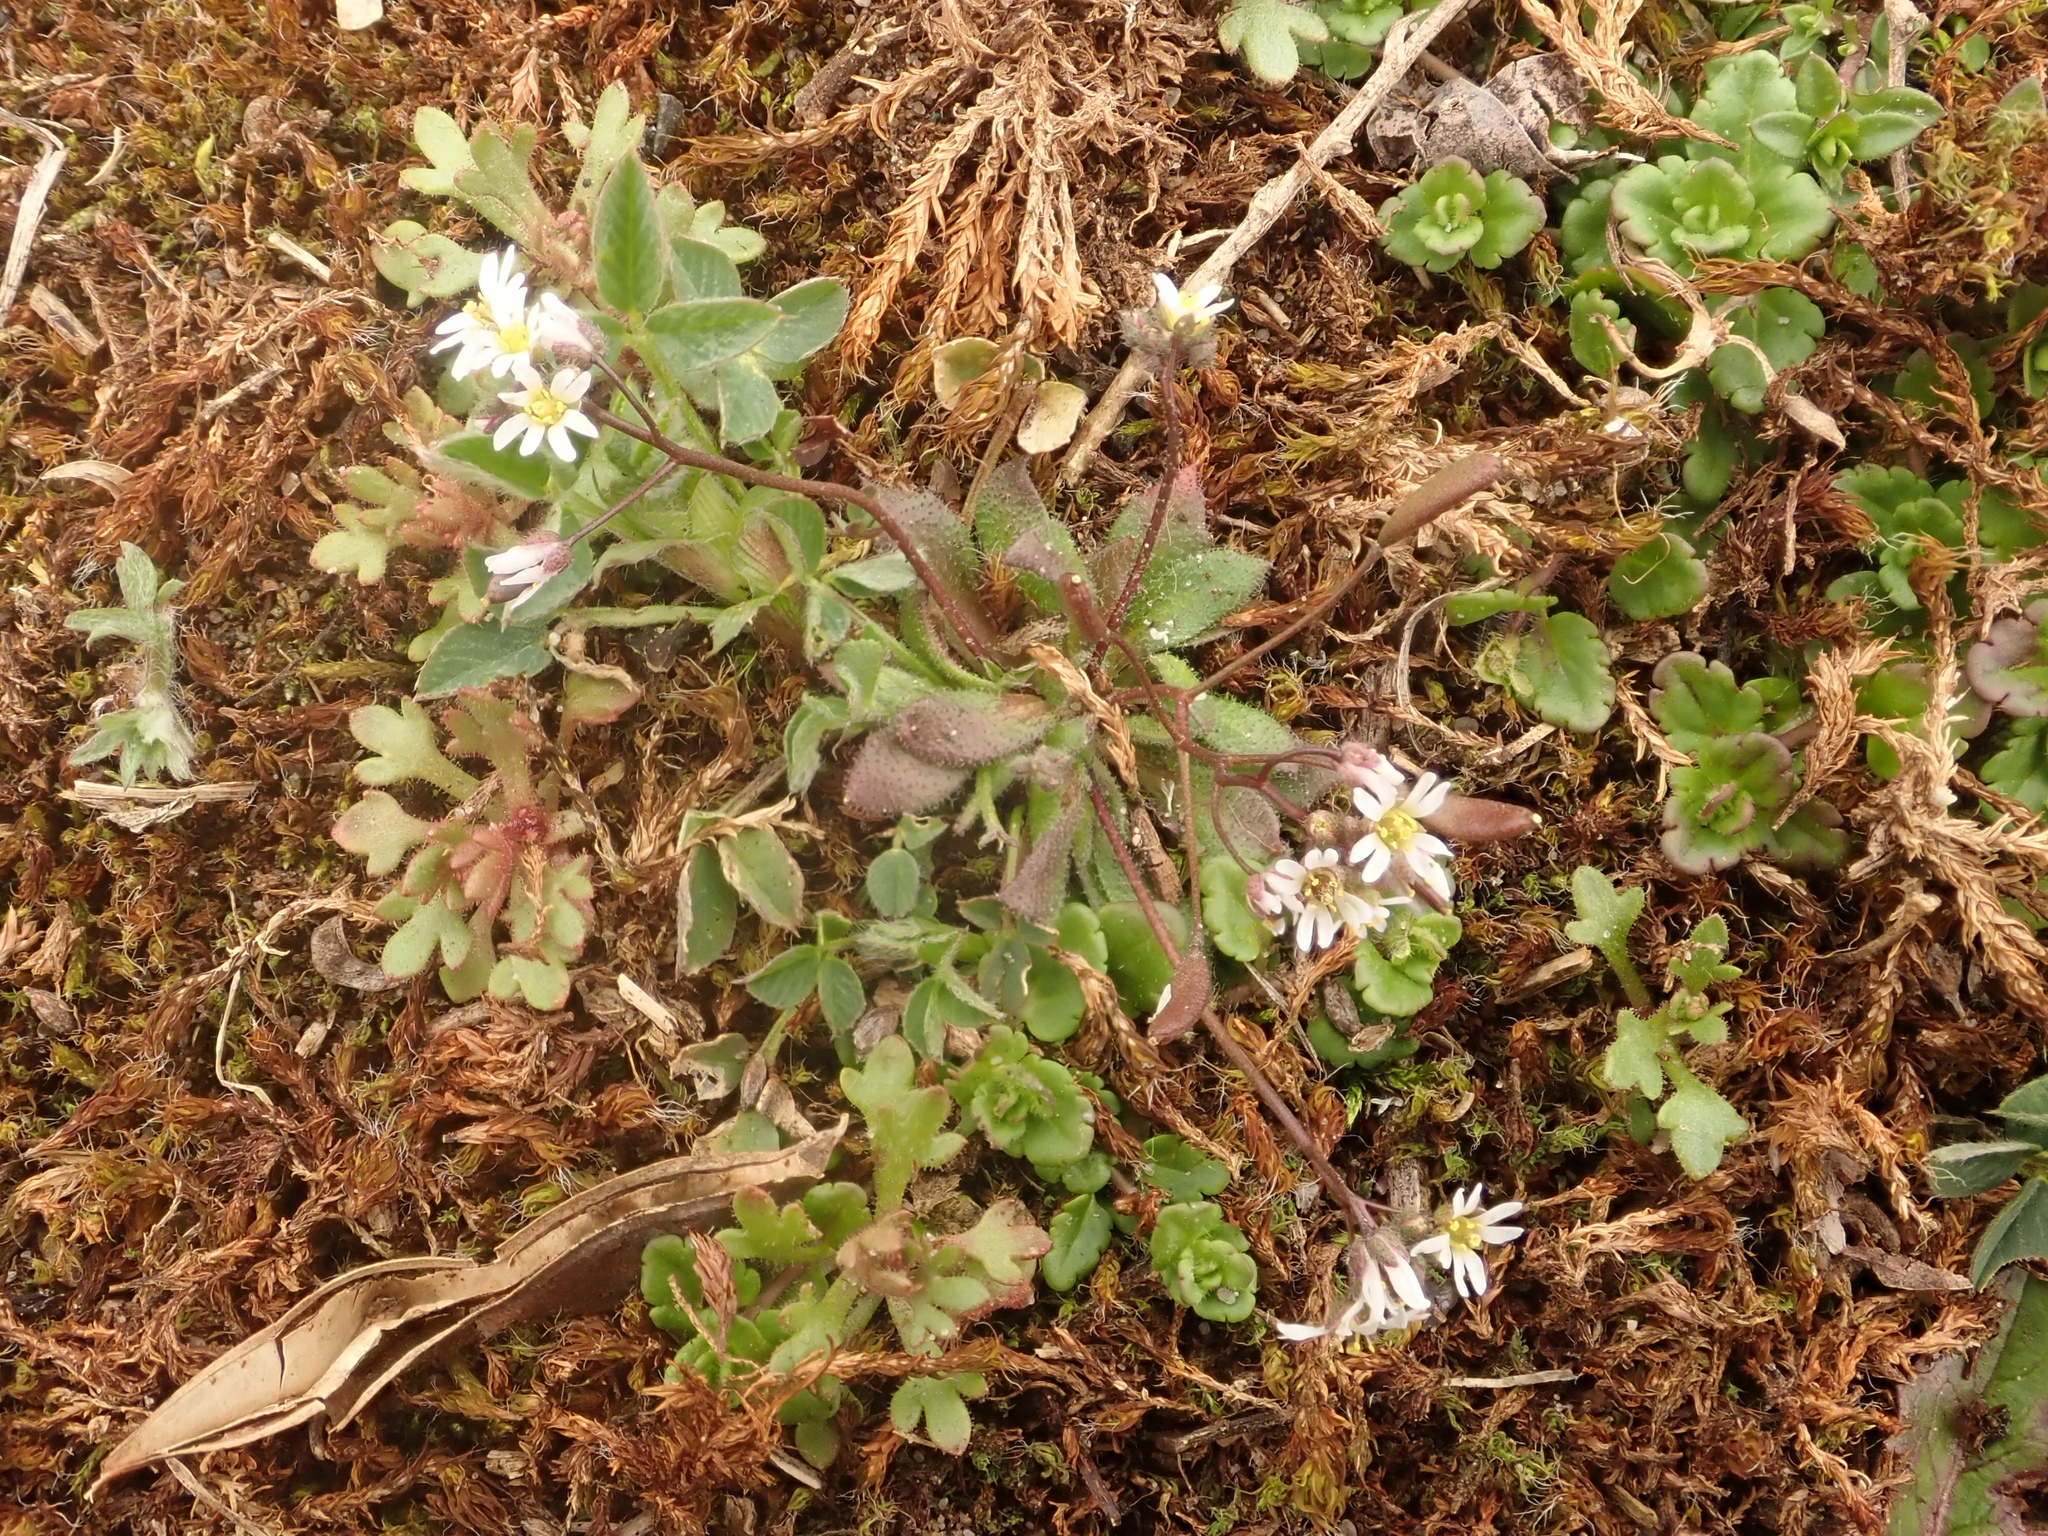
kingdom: Plantae
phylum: Tracheophyta
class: Magnoliopsida
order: Brassicales
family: Brassicaceae
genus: Draba
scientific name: Draba verna
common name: Spring draba
